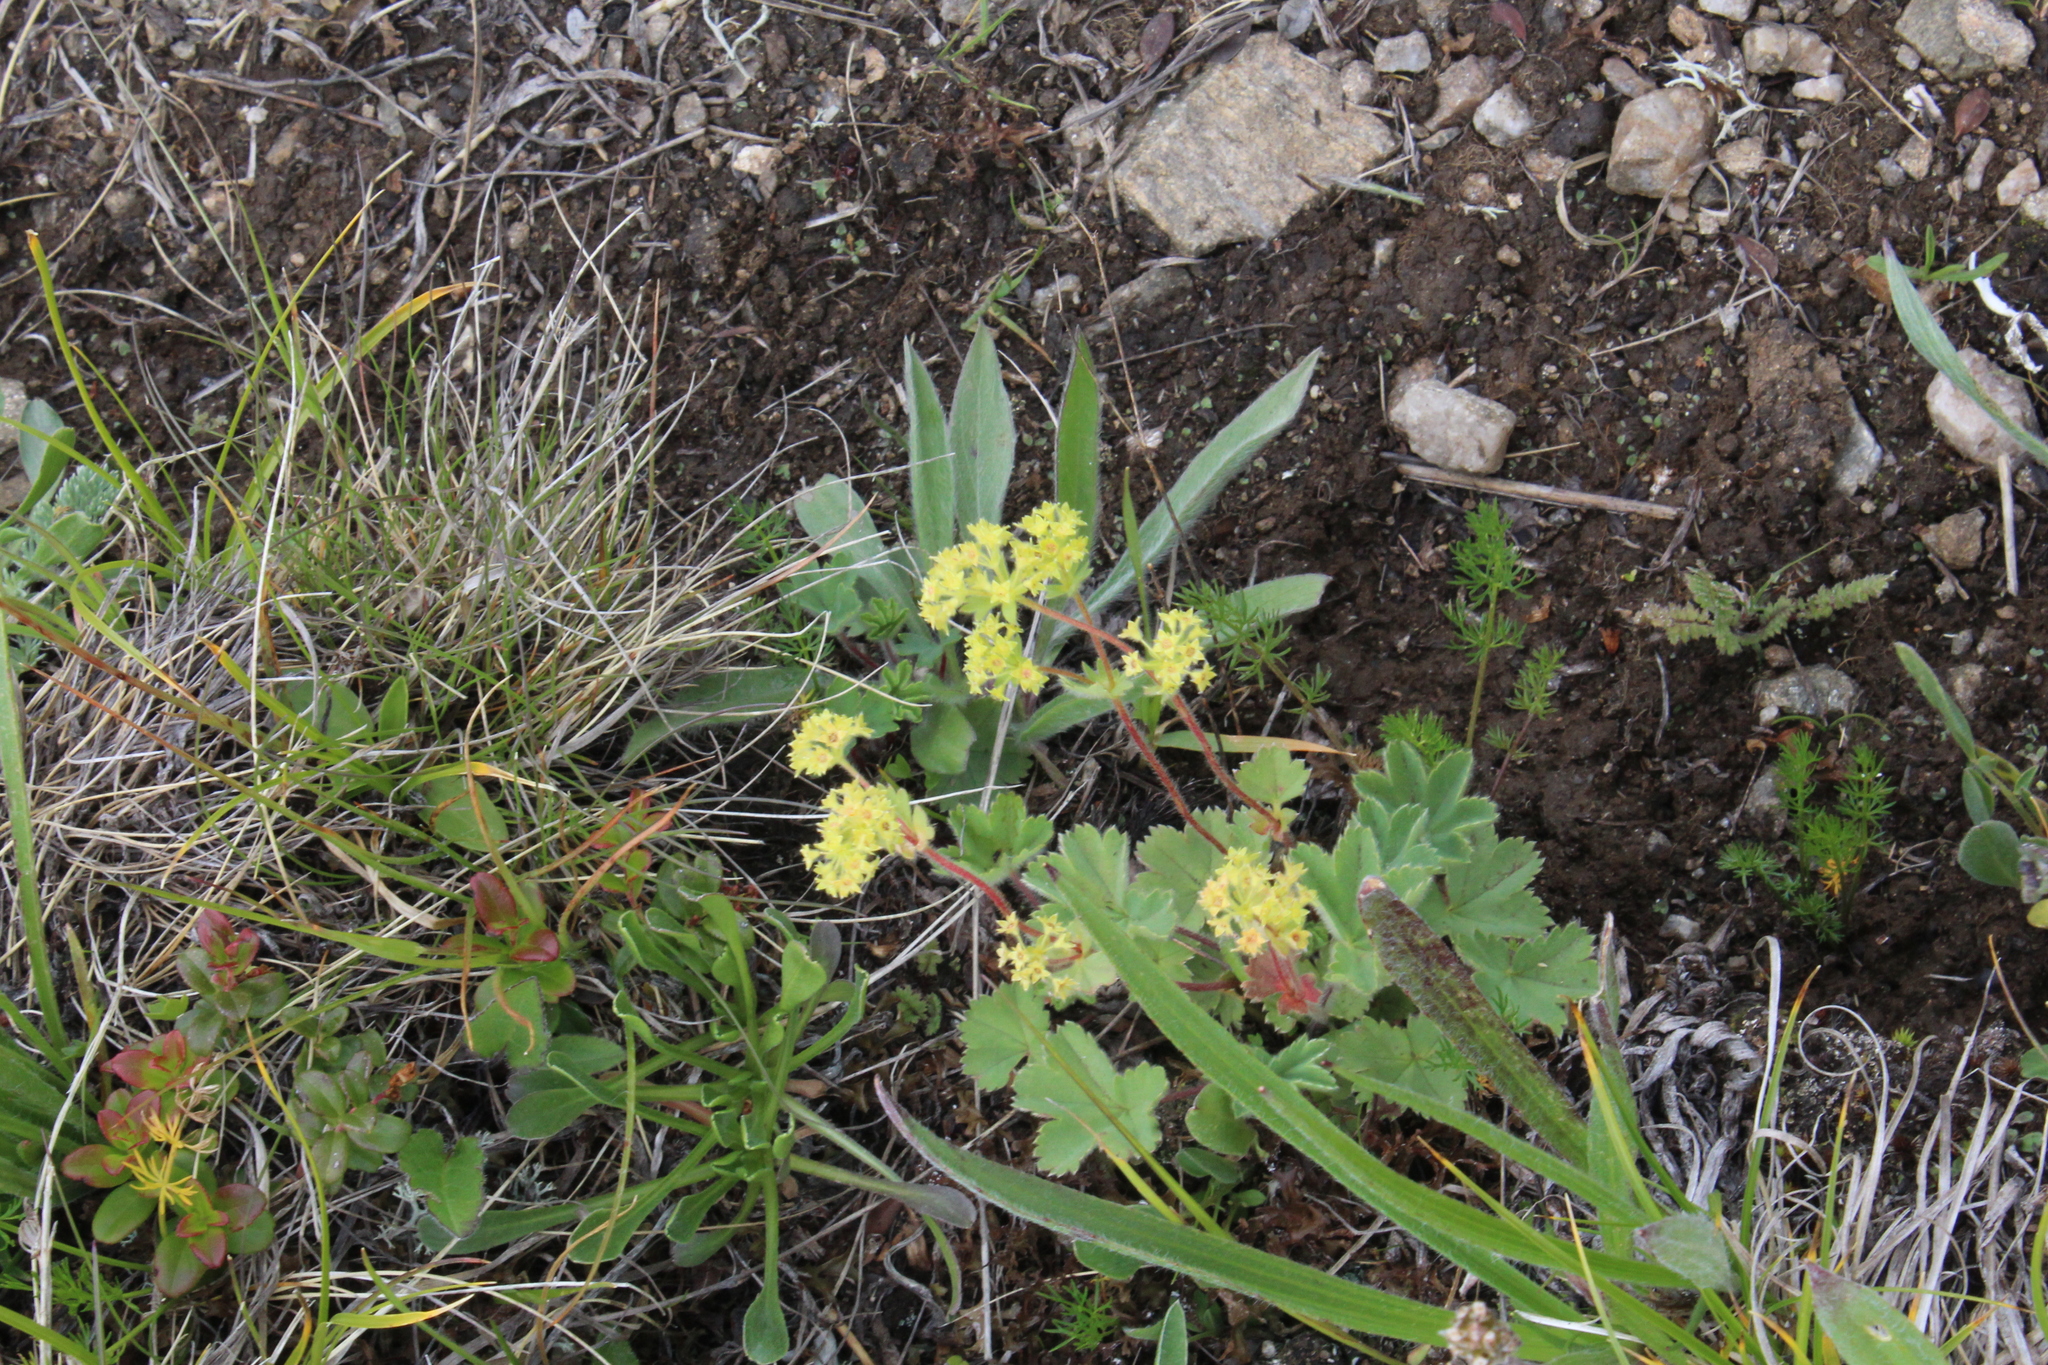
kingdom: Plantae
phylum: Tracheophyta
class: Magnoliopsida
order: Rosales
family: Rosaceae
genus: Alchemilla
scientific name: Alchemilla caucasica
